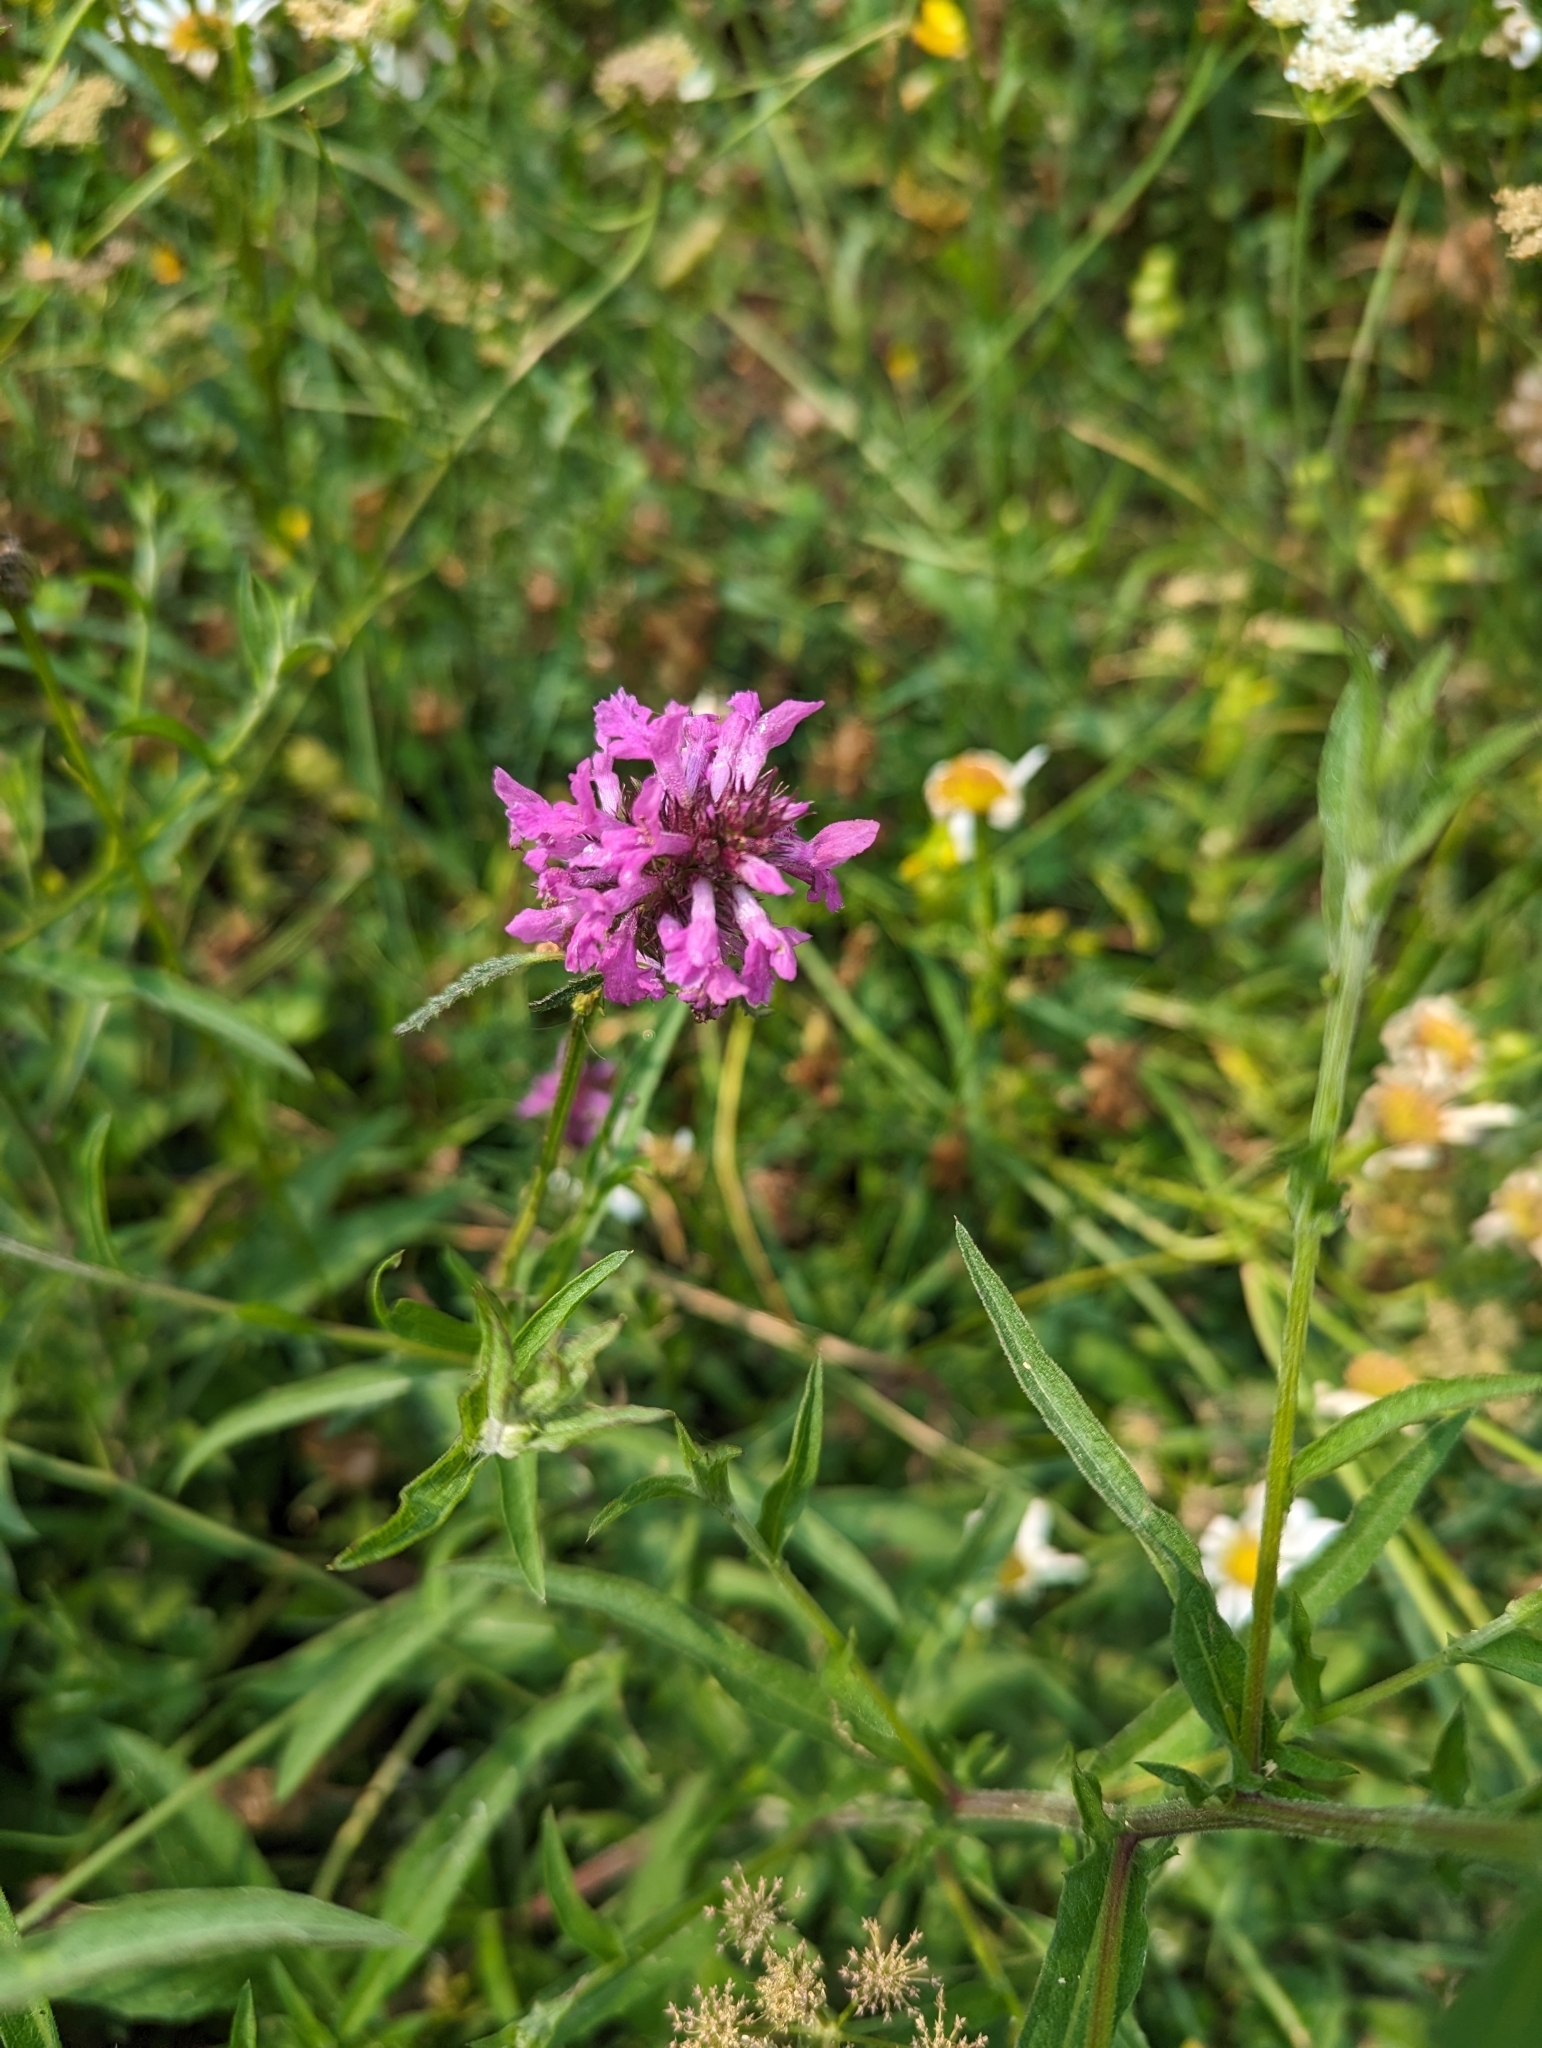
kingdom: Plantae
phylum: Tracheophyta
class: Magnoliopsida
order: Lamiales
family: Lamiaceae
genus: Betonica
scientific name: Betonica officinalis
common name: Bishop's-wort
